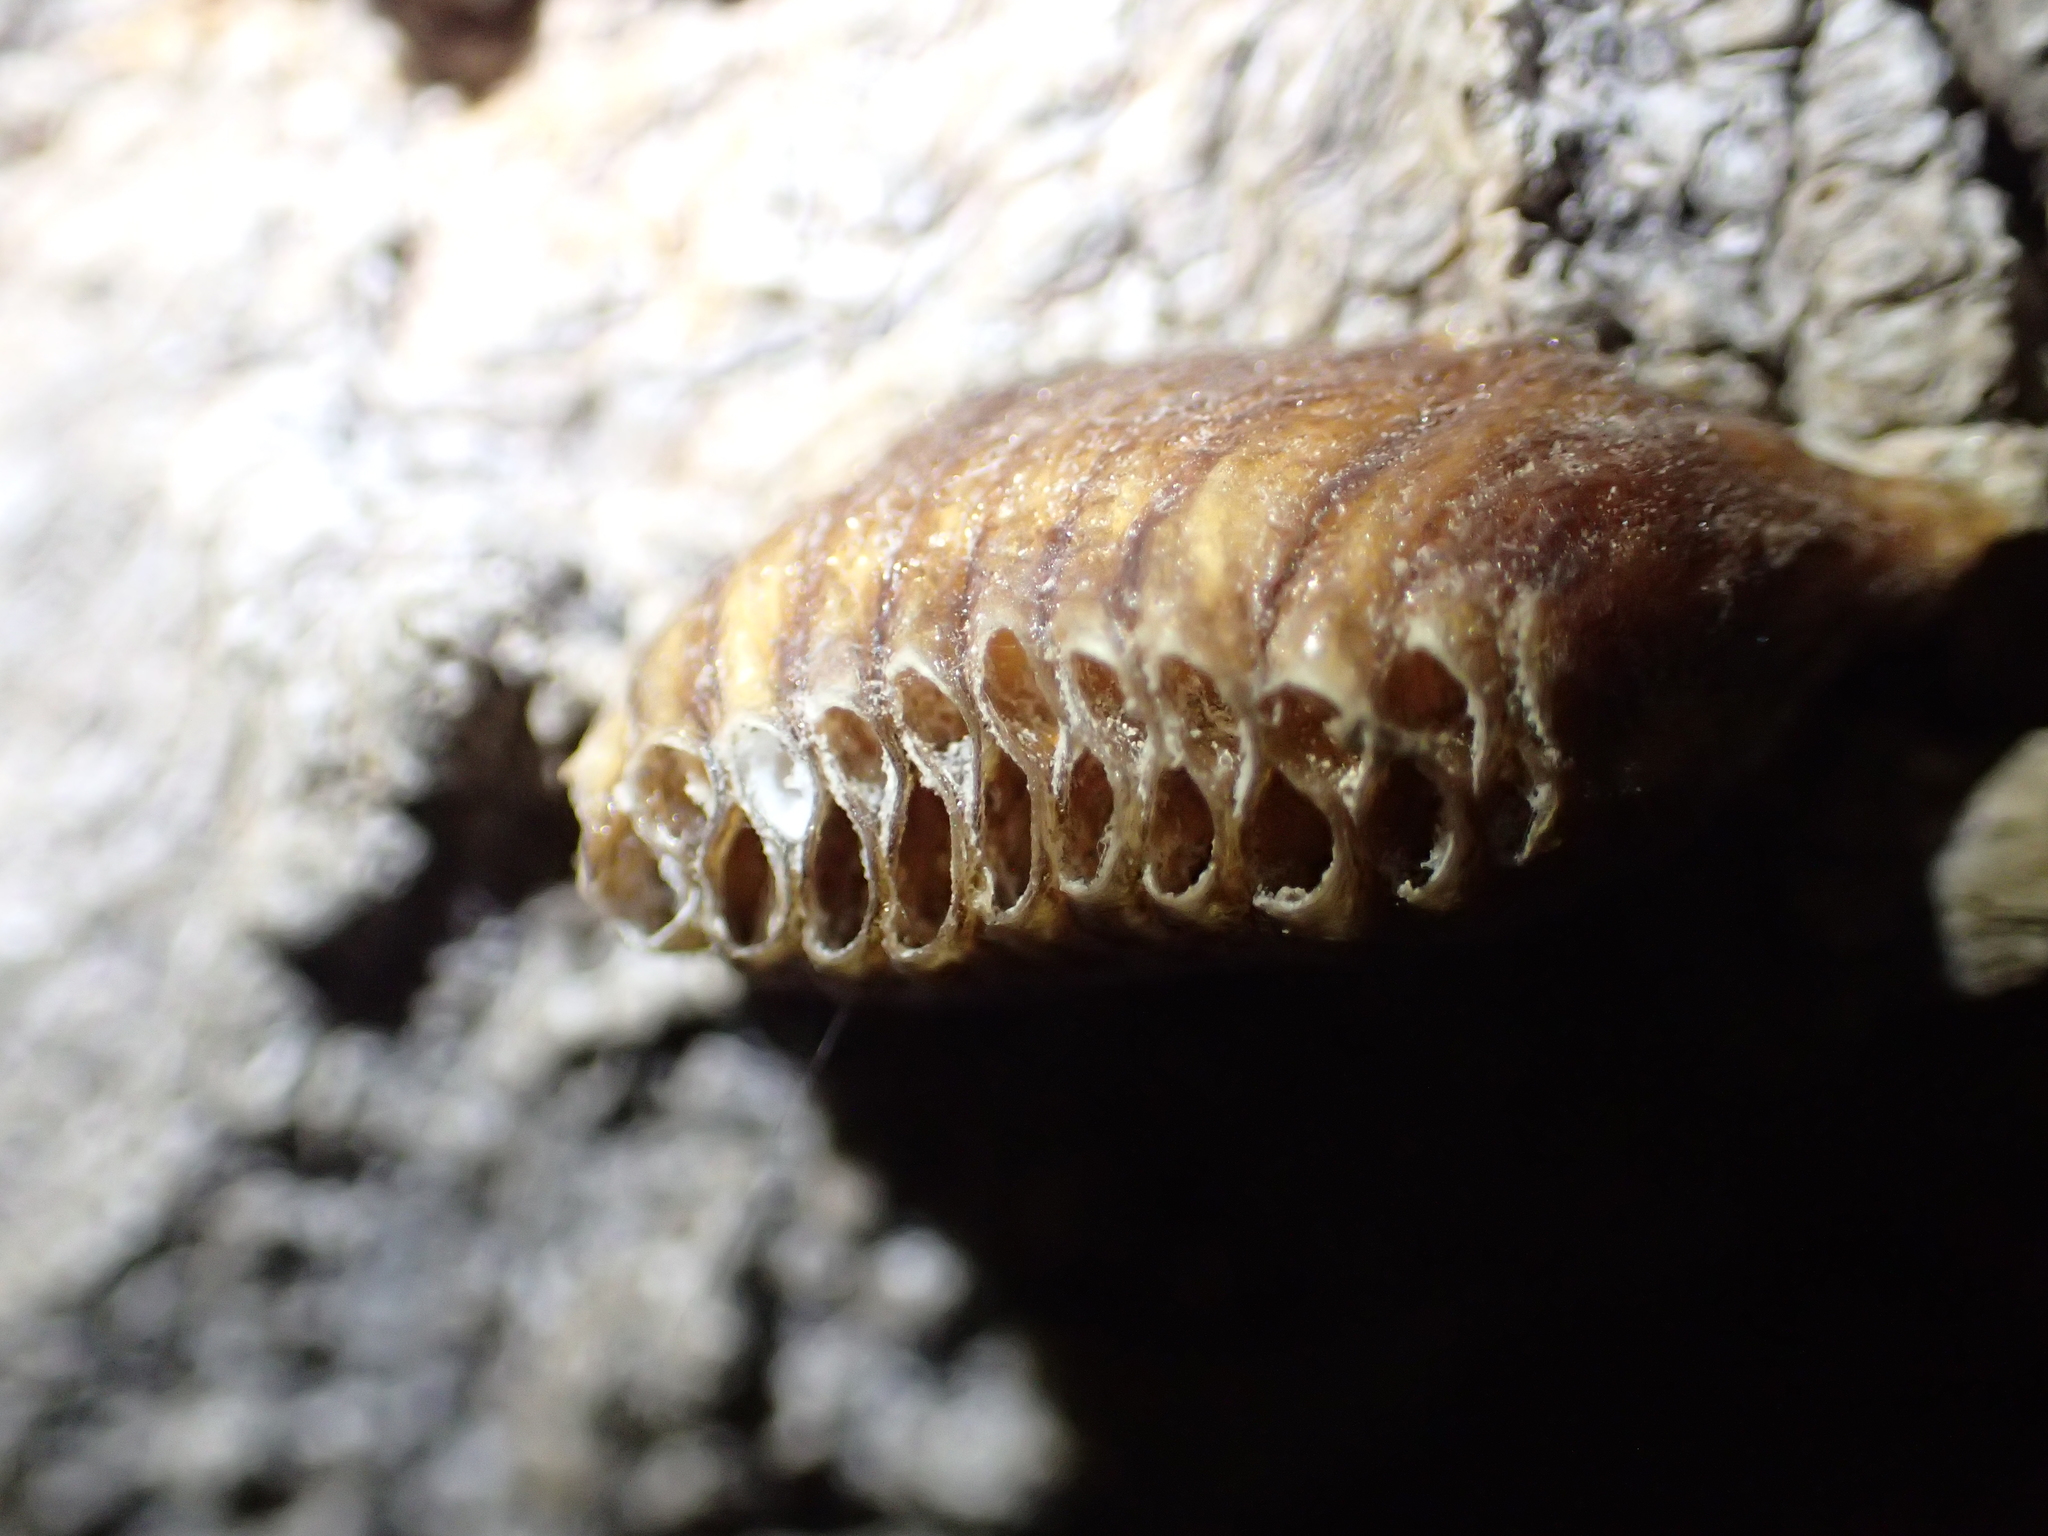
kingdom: Animalia
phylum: Arthropoda
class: Insecta
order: Mantodea
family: Mantidae
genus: Orthodera
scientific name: Orthodera novaezealandiae
